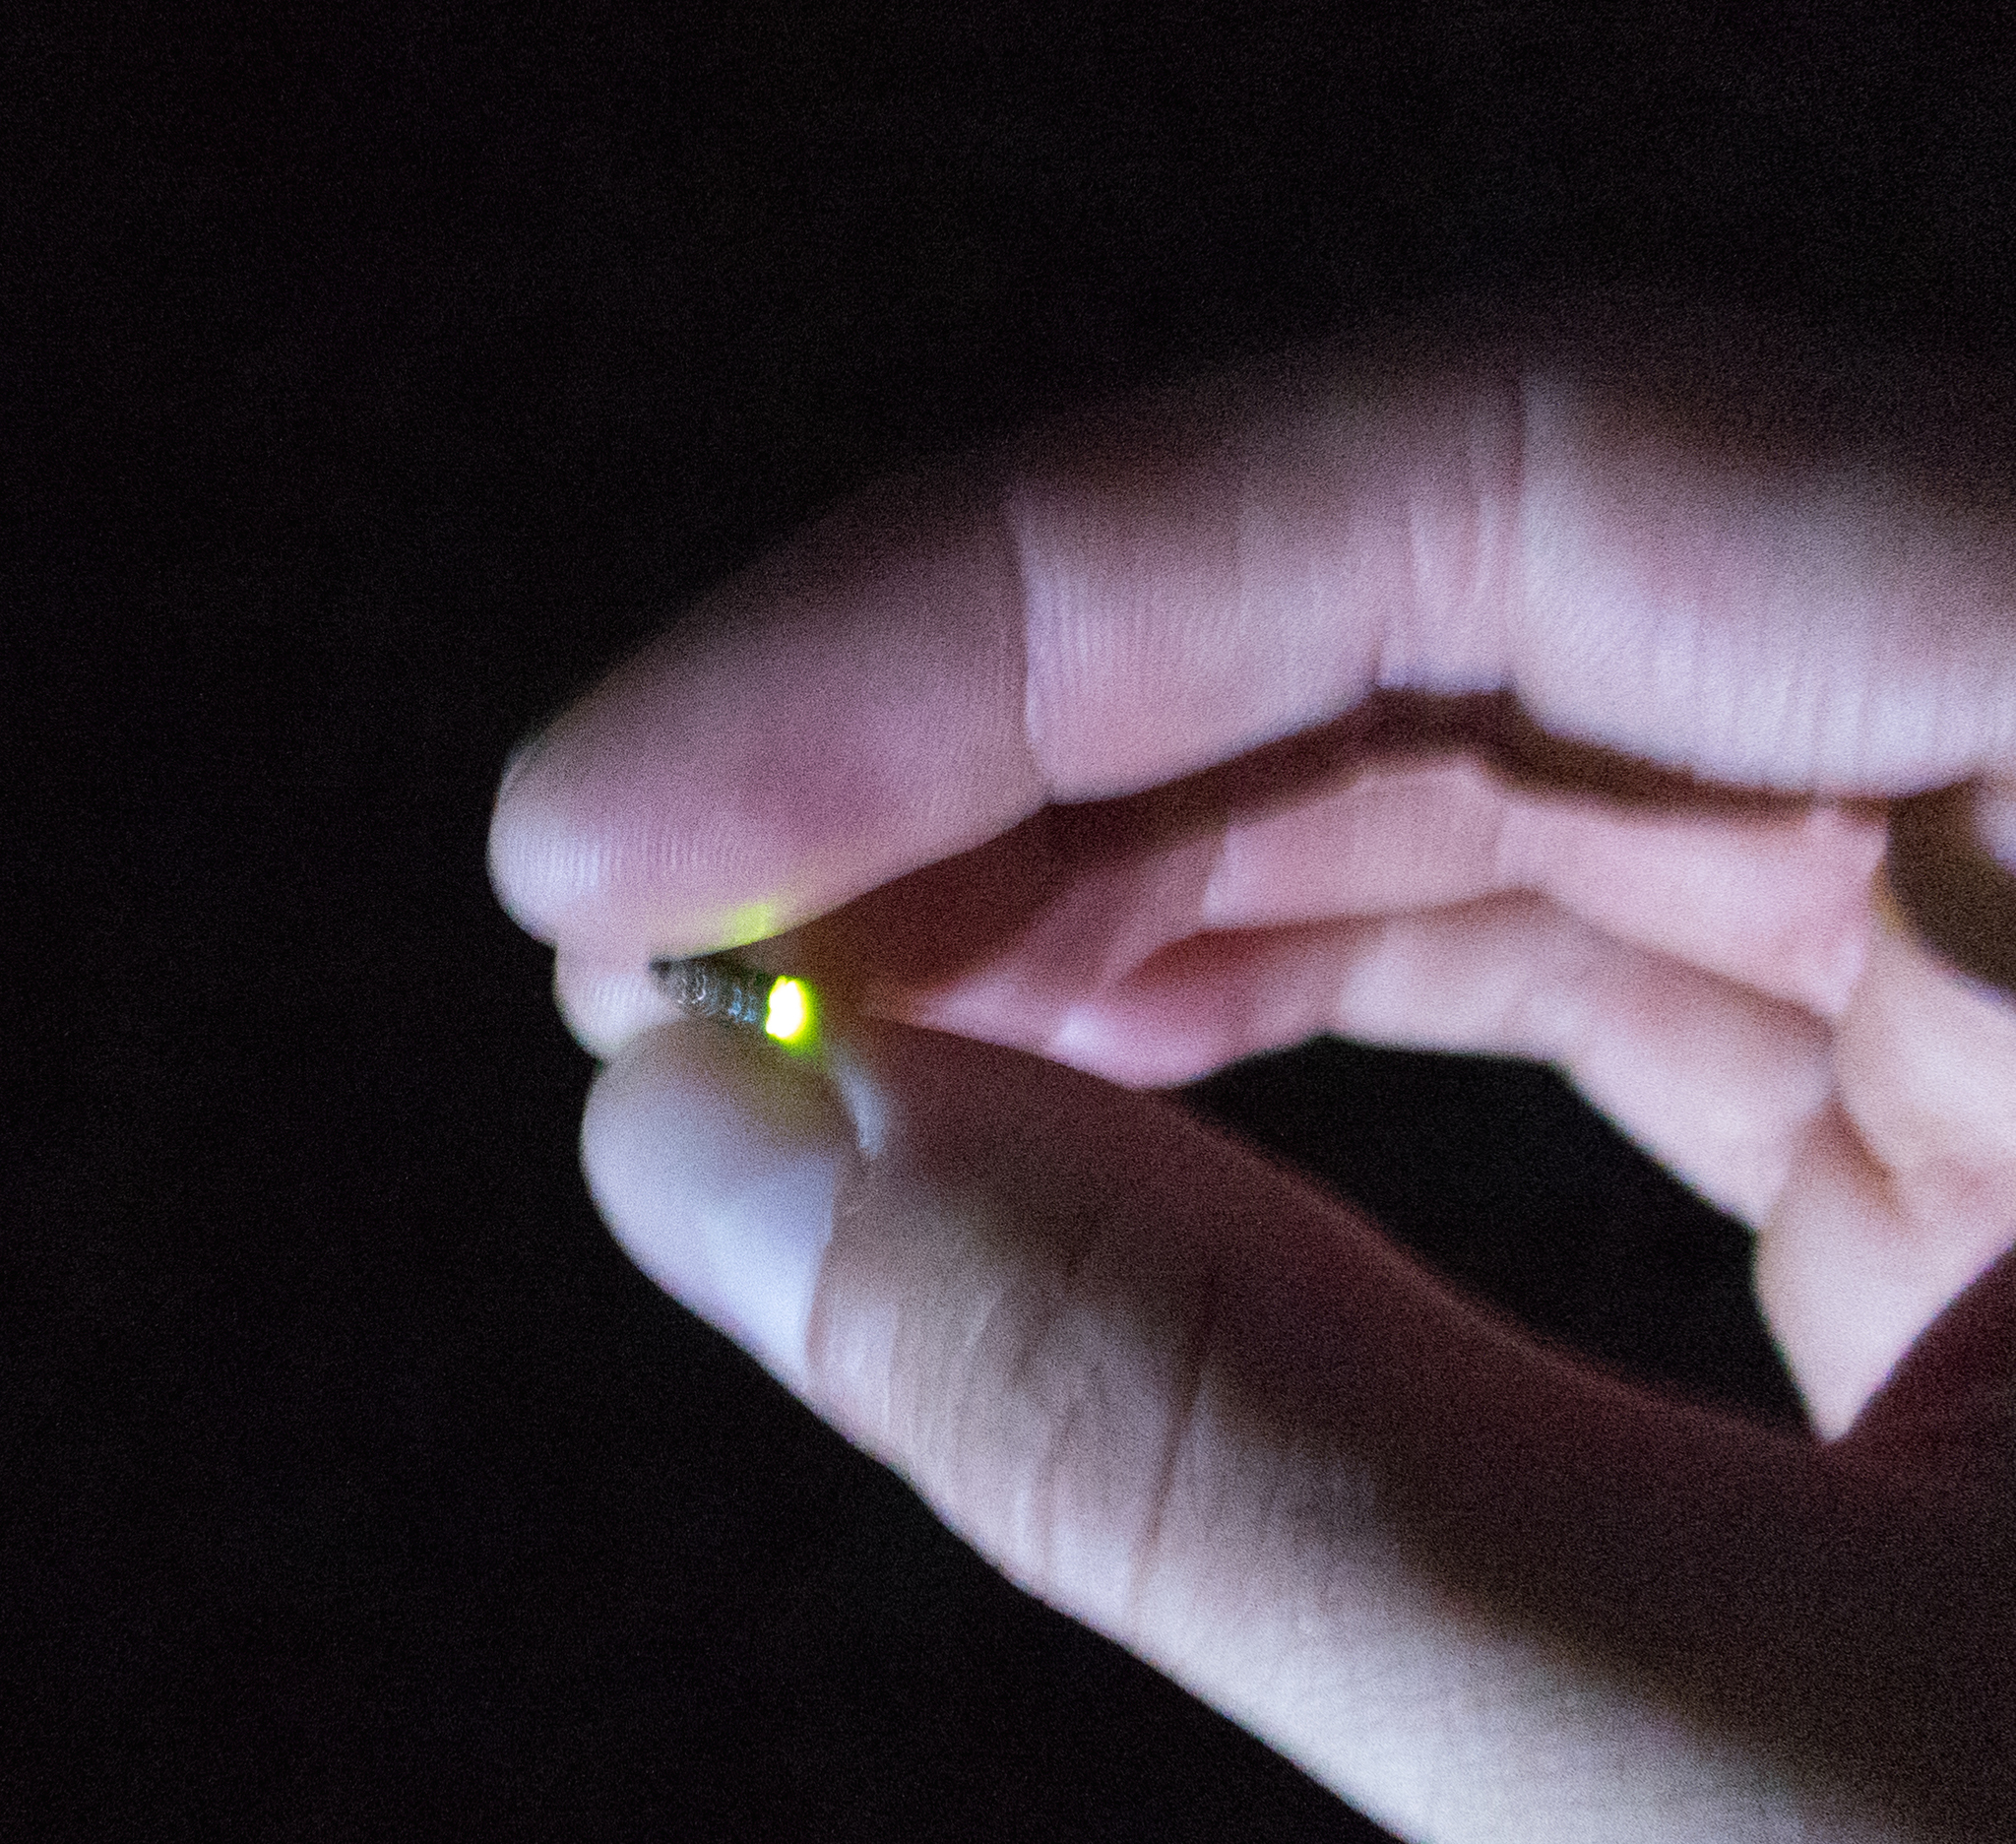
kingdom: Animalia
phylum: Arthropoda
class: Insecta
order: Coleoptera
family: Lampyridae
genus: Lamprohiza
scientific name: Lamprohiza splendidula
